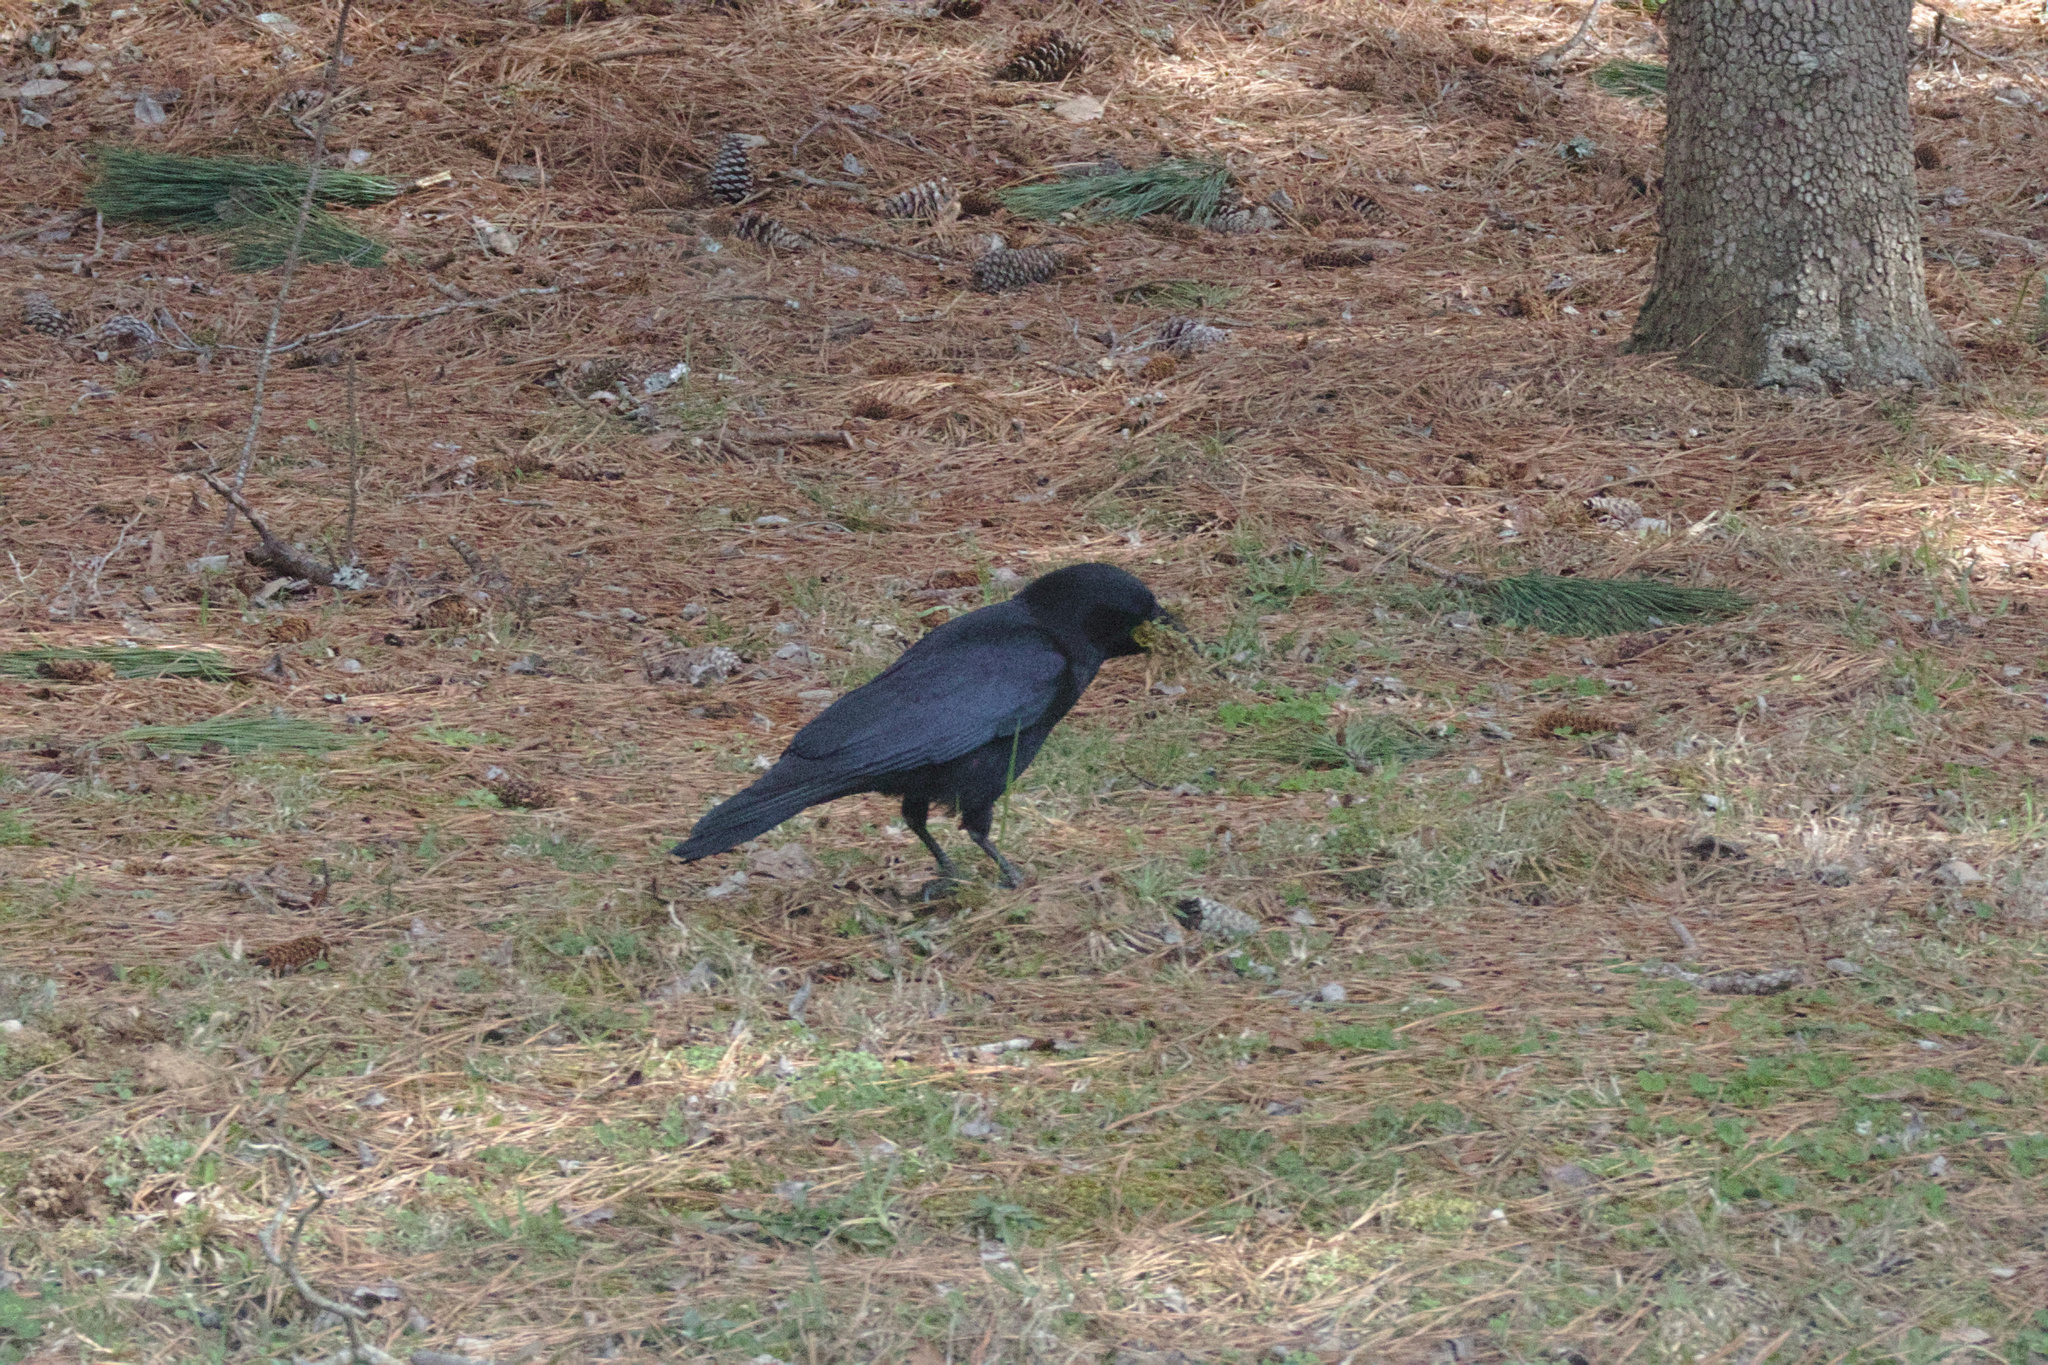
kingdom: Animalia
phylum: Chordata
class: Aves
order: Passeriformes
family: Corvidae
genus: Corvus
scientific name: Corvus brachyrhynchos
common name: American crow
